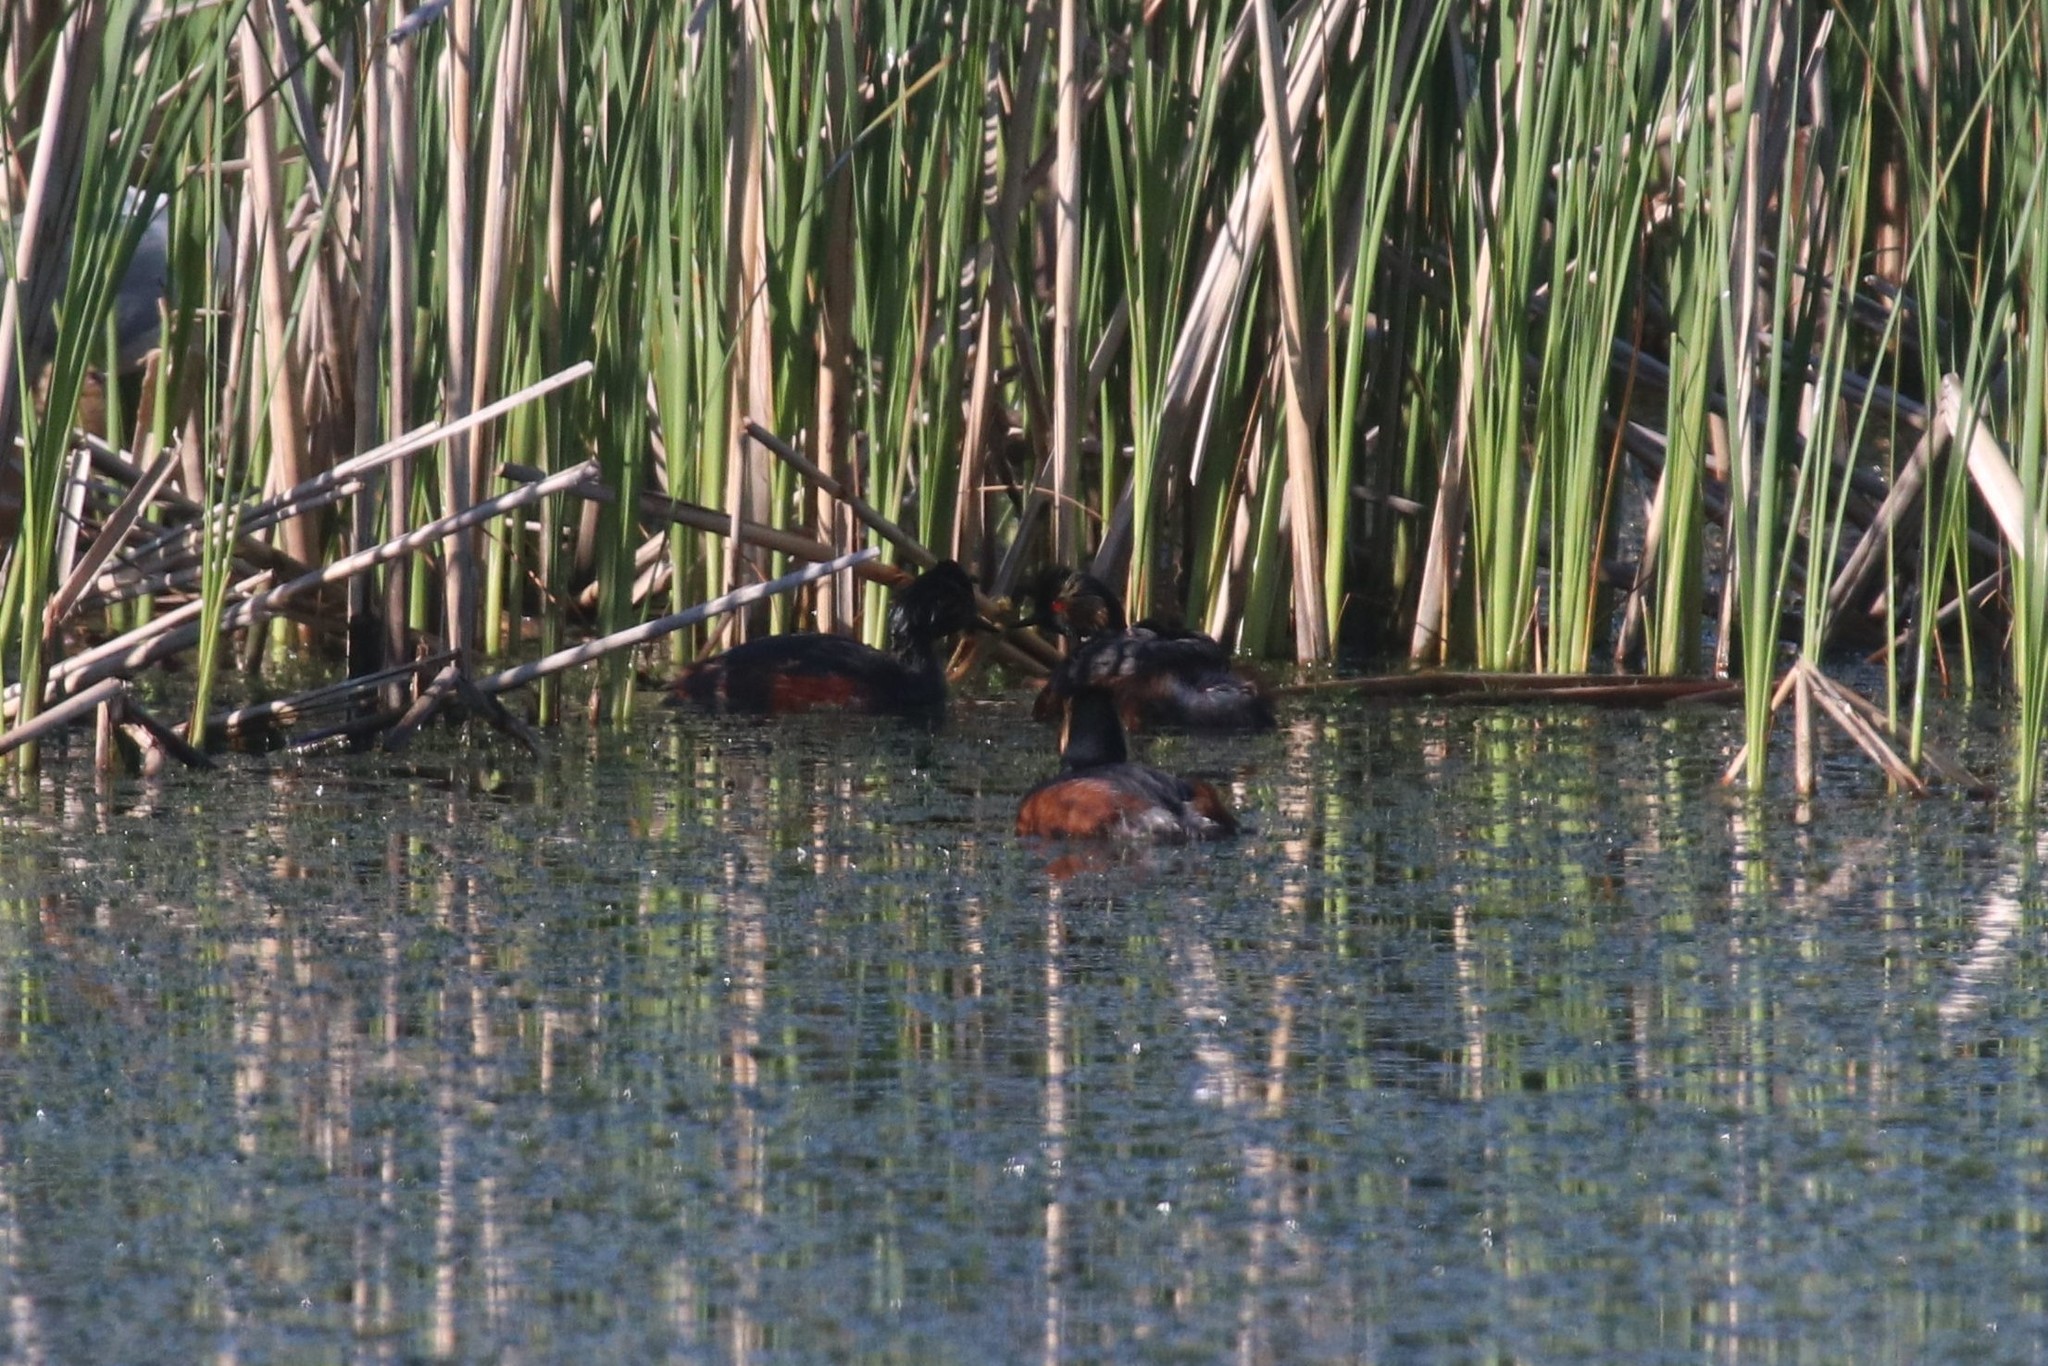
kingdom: Animalia
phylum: Chordata
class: Aves
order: Podicipediformes
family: Podicipedidae
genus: Podiceps
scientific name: Podiceps nigricollis
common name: Black-necked grebe
